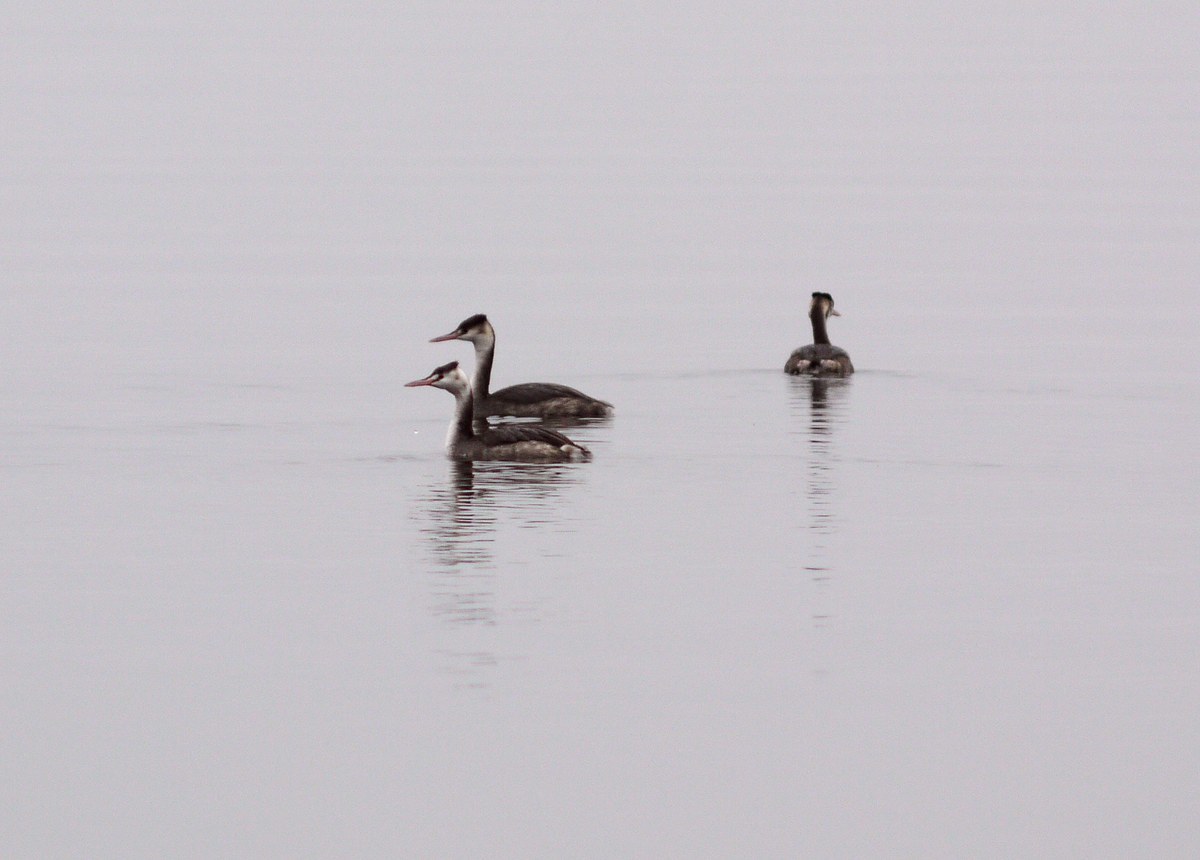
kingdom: Animalia
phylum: Chordata
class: Aves
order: Podicipediformes
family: Podicipedidae
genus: Podiceps
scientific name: Podiceps cristatus
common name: Great crested grebe
